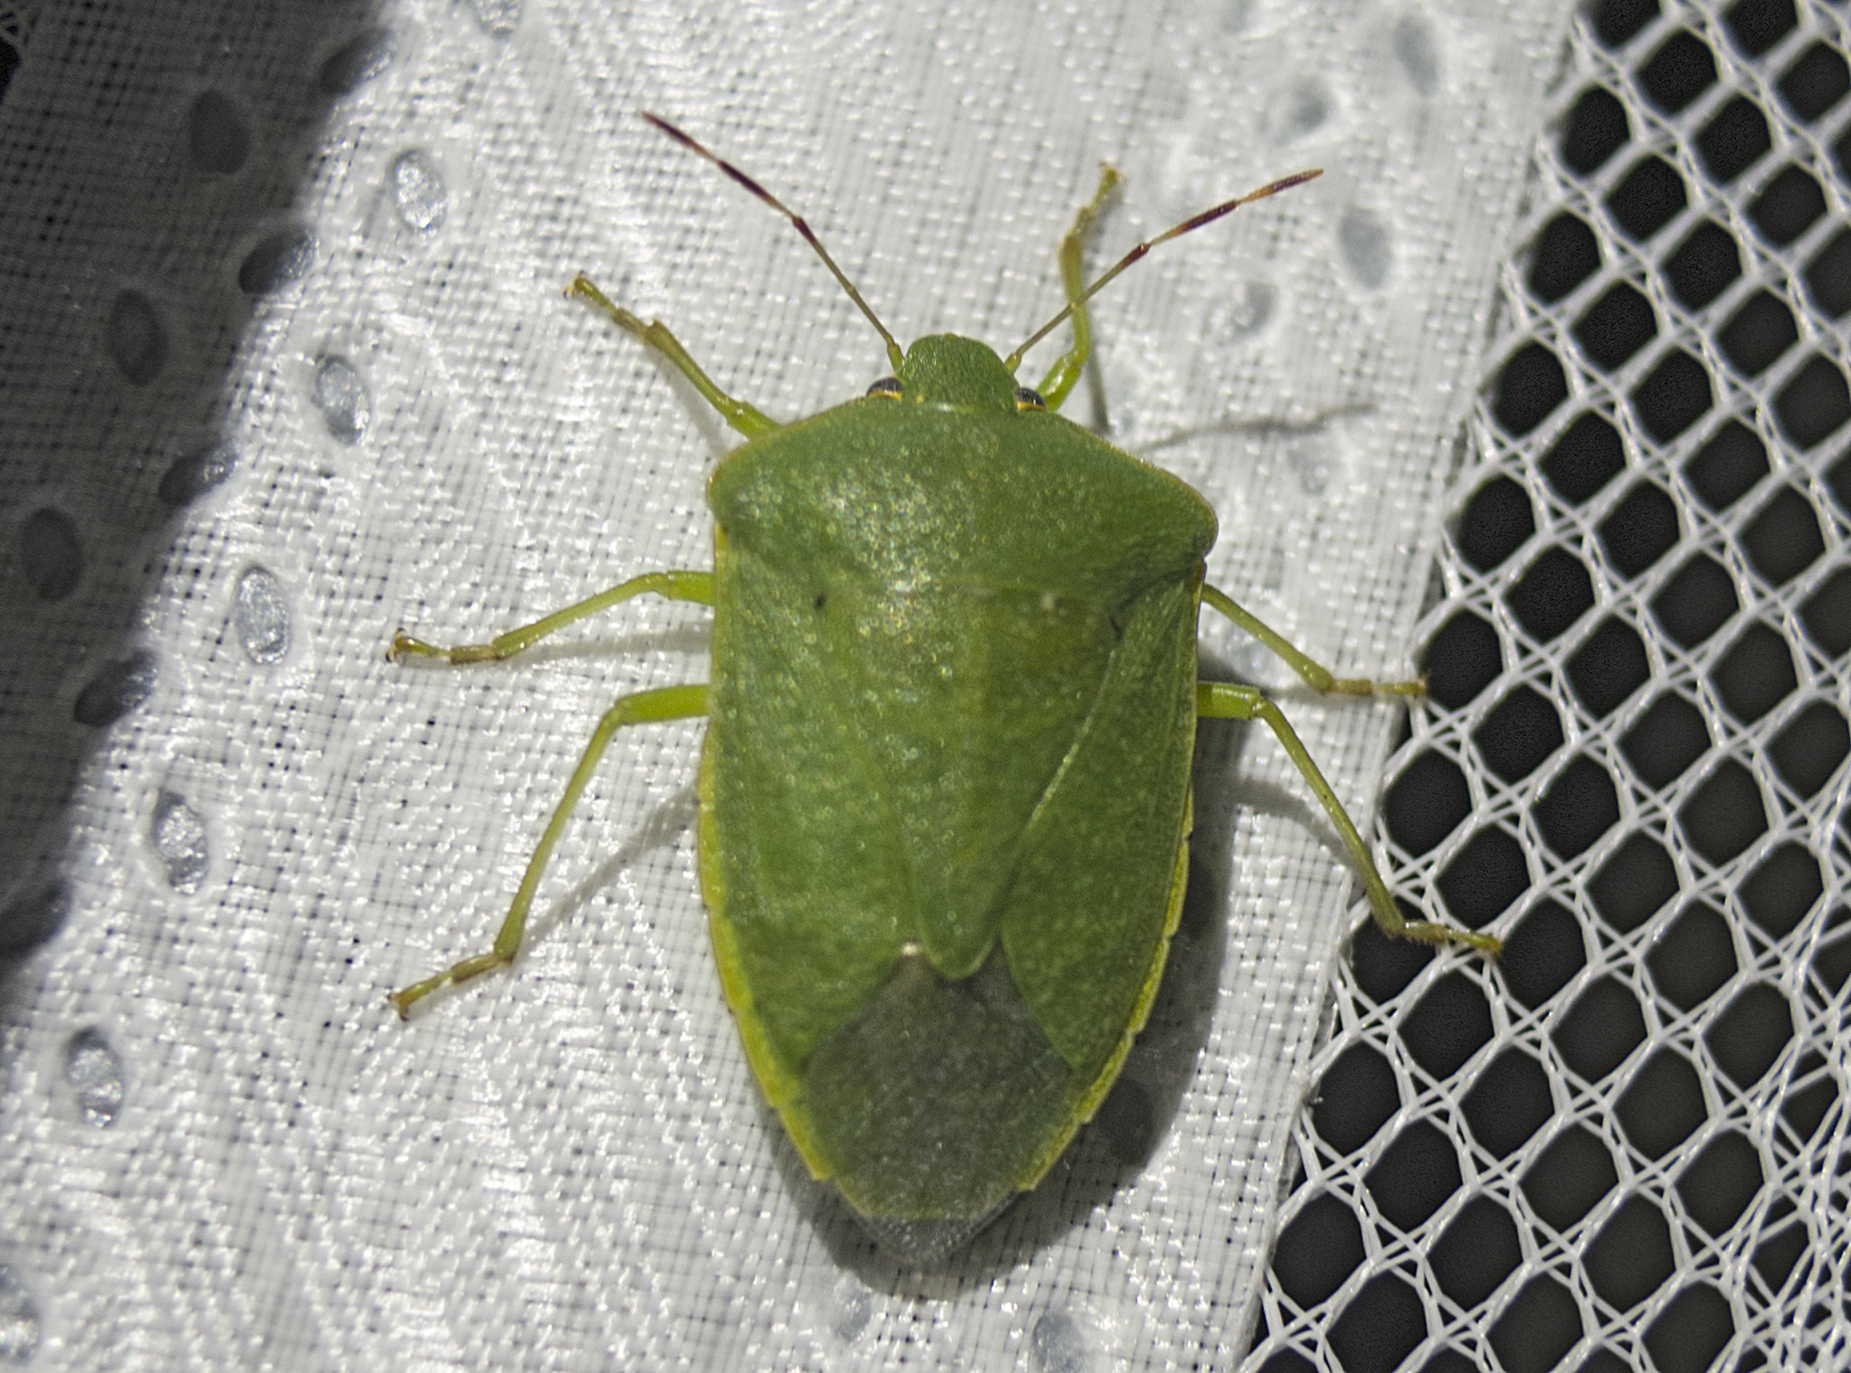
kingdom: Animalia
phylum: Arthropoda
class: Insecta
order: Hemiptera
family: Pentatomidae
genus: Nezara
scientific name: Nezara viridula
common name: Southern green stink bug
